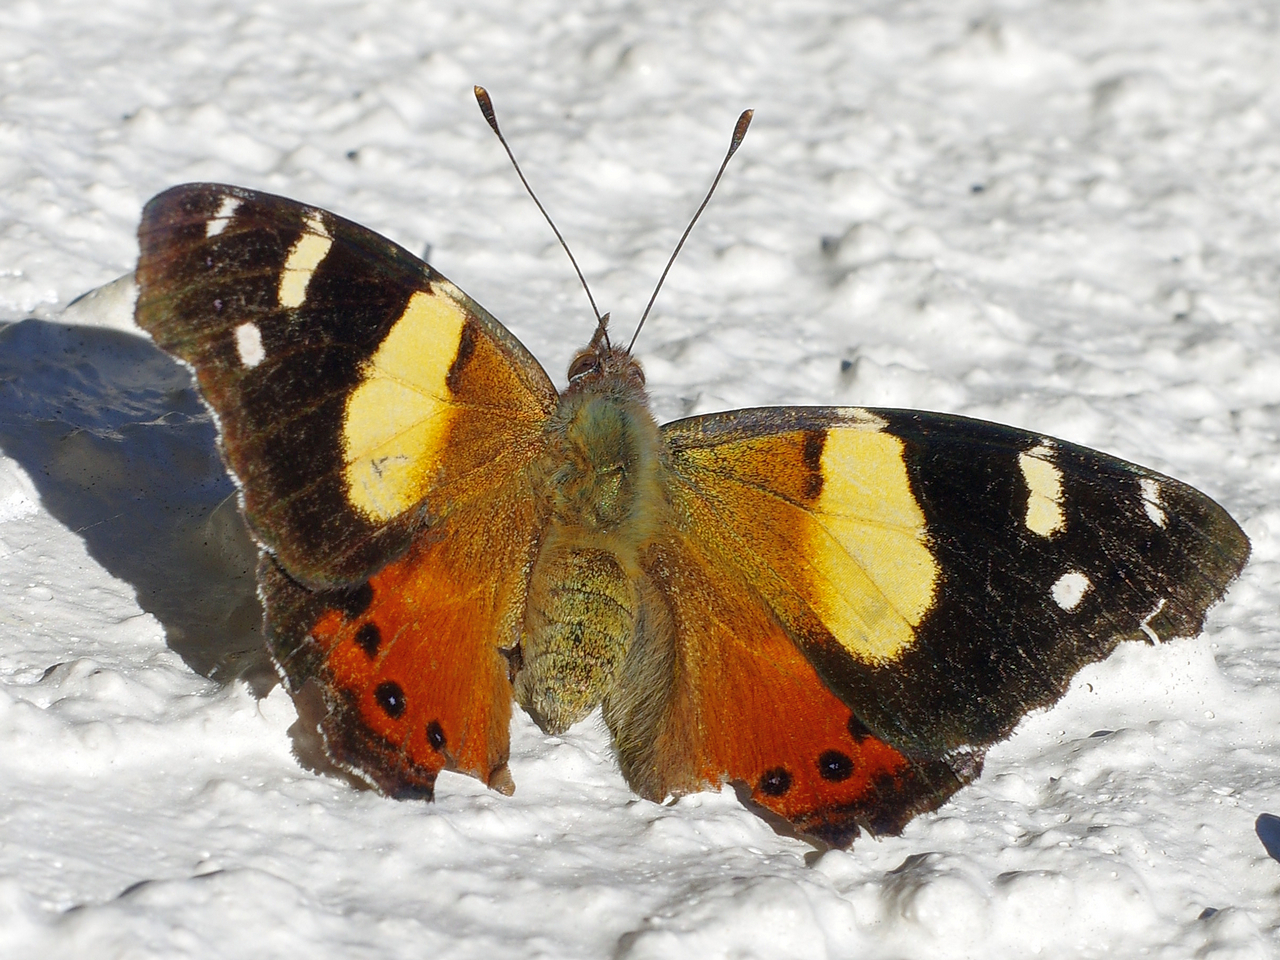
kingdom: Animalia
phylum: Arthropoda
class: Insecta
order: Lepidoptera
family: Nymphalidae
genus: Vanessa
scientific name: Vanessa itea
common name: Yellow admiral
